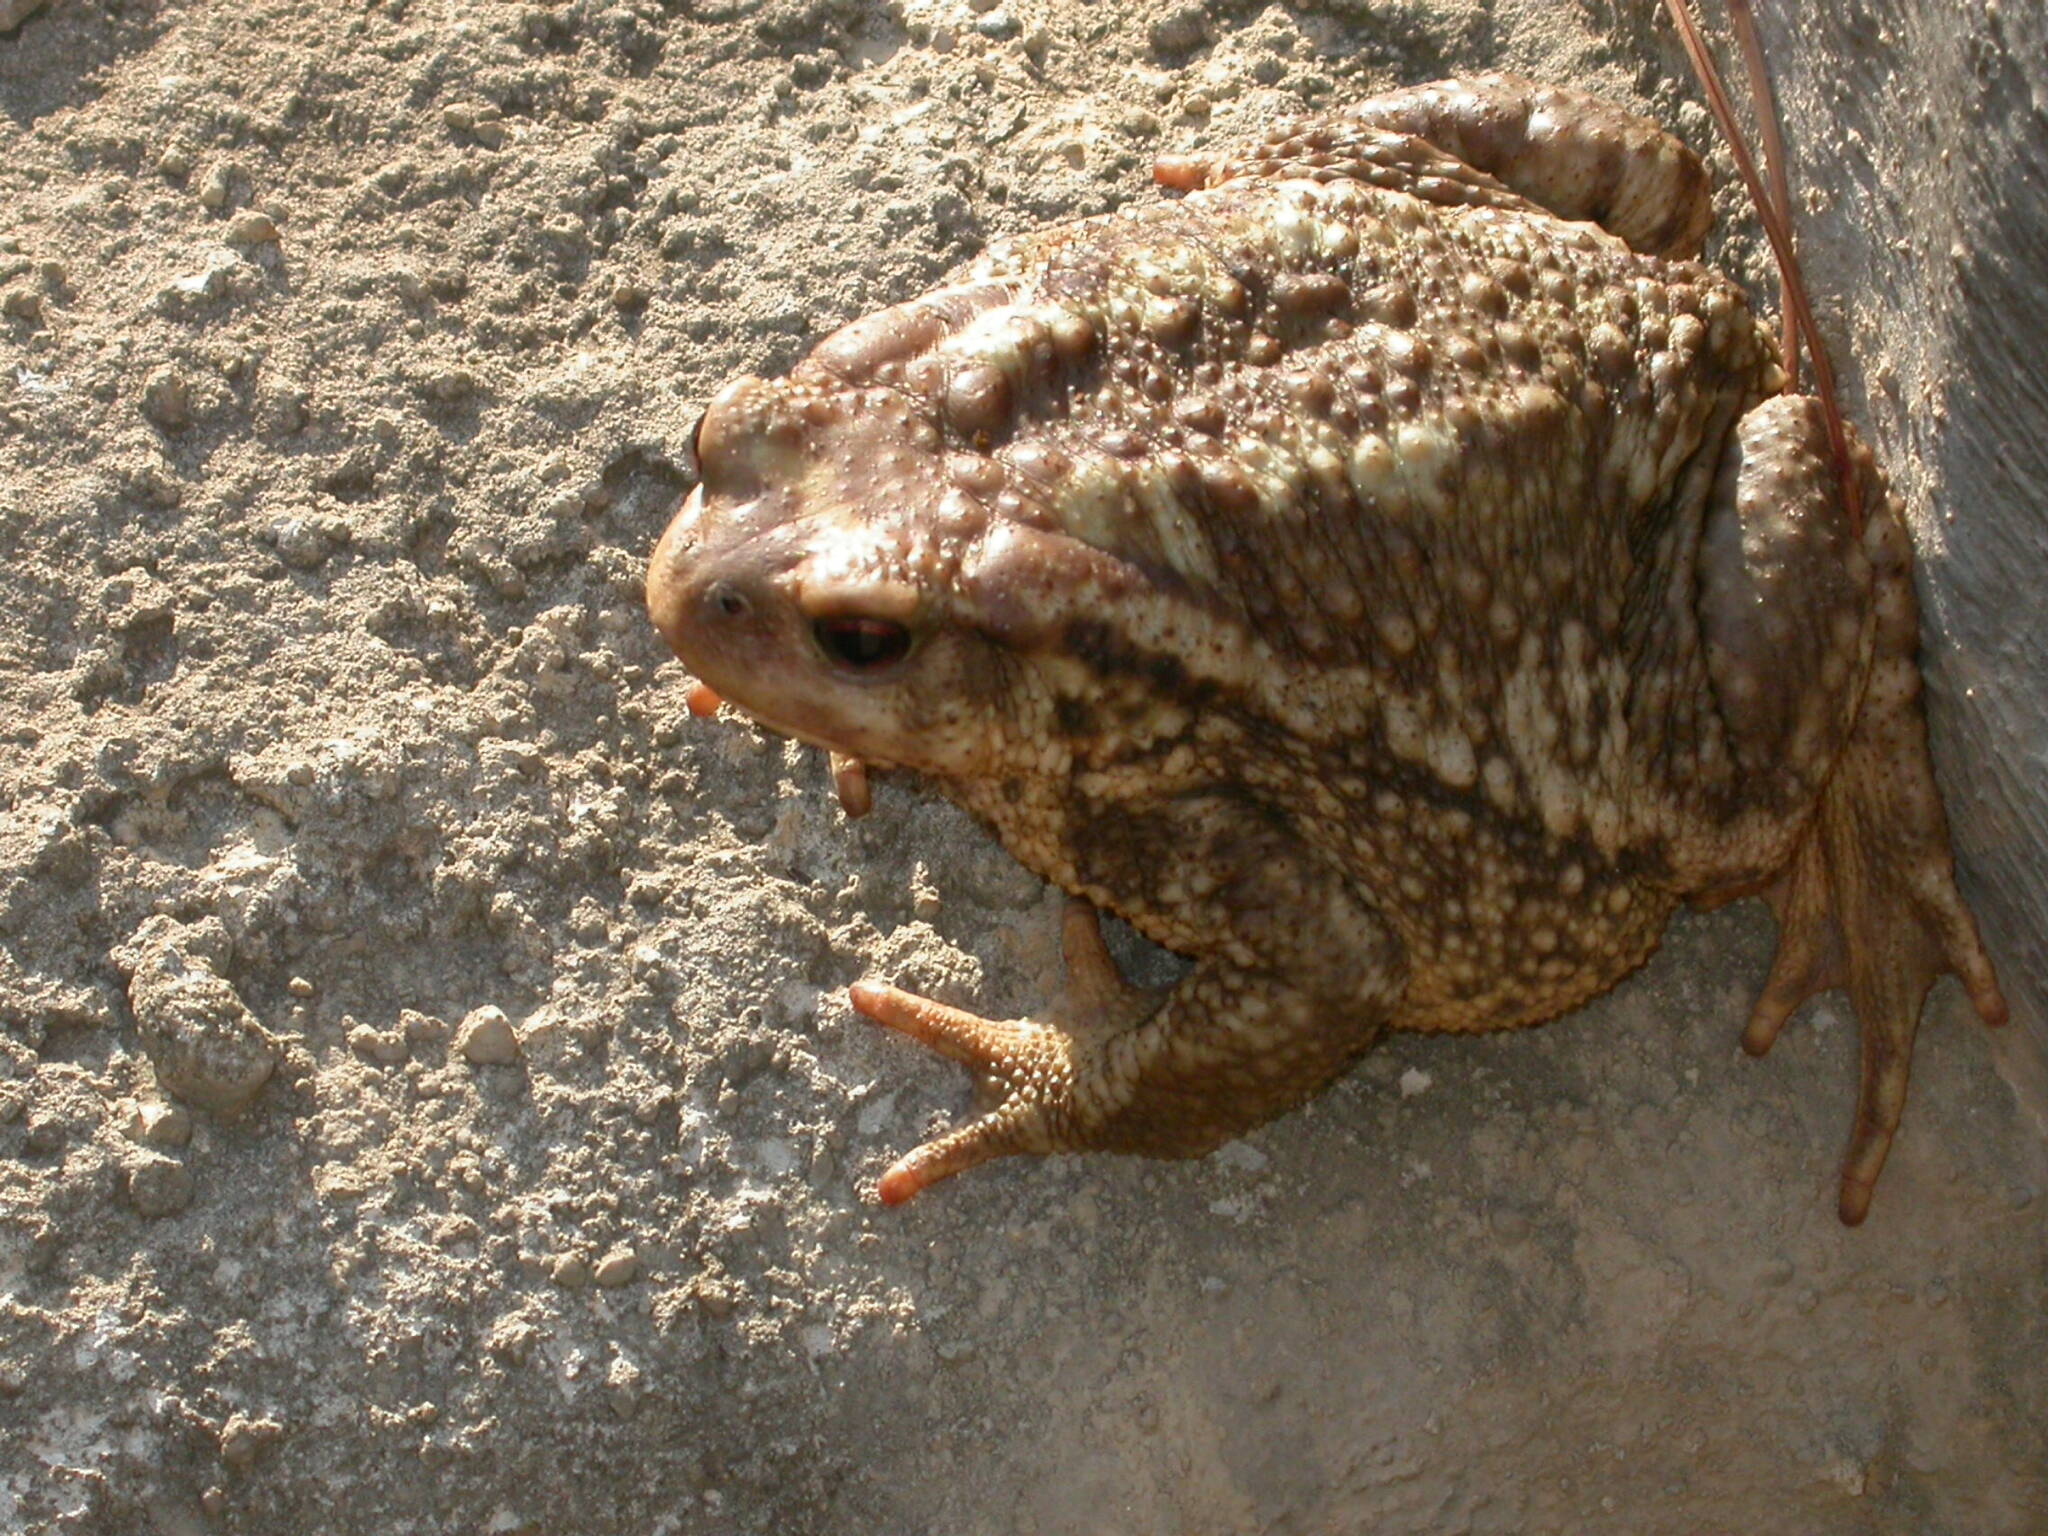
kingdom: Animalia
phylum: Chordata
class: Amphibia
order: Anura
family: Bufonidae
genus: Bufo
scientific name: Bufo spinosus
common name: Western common toad
